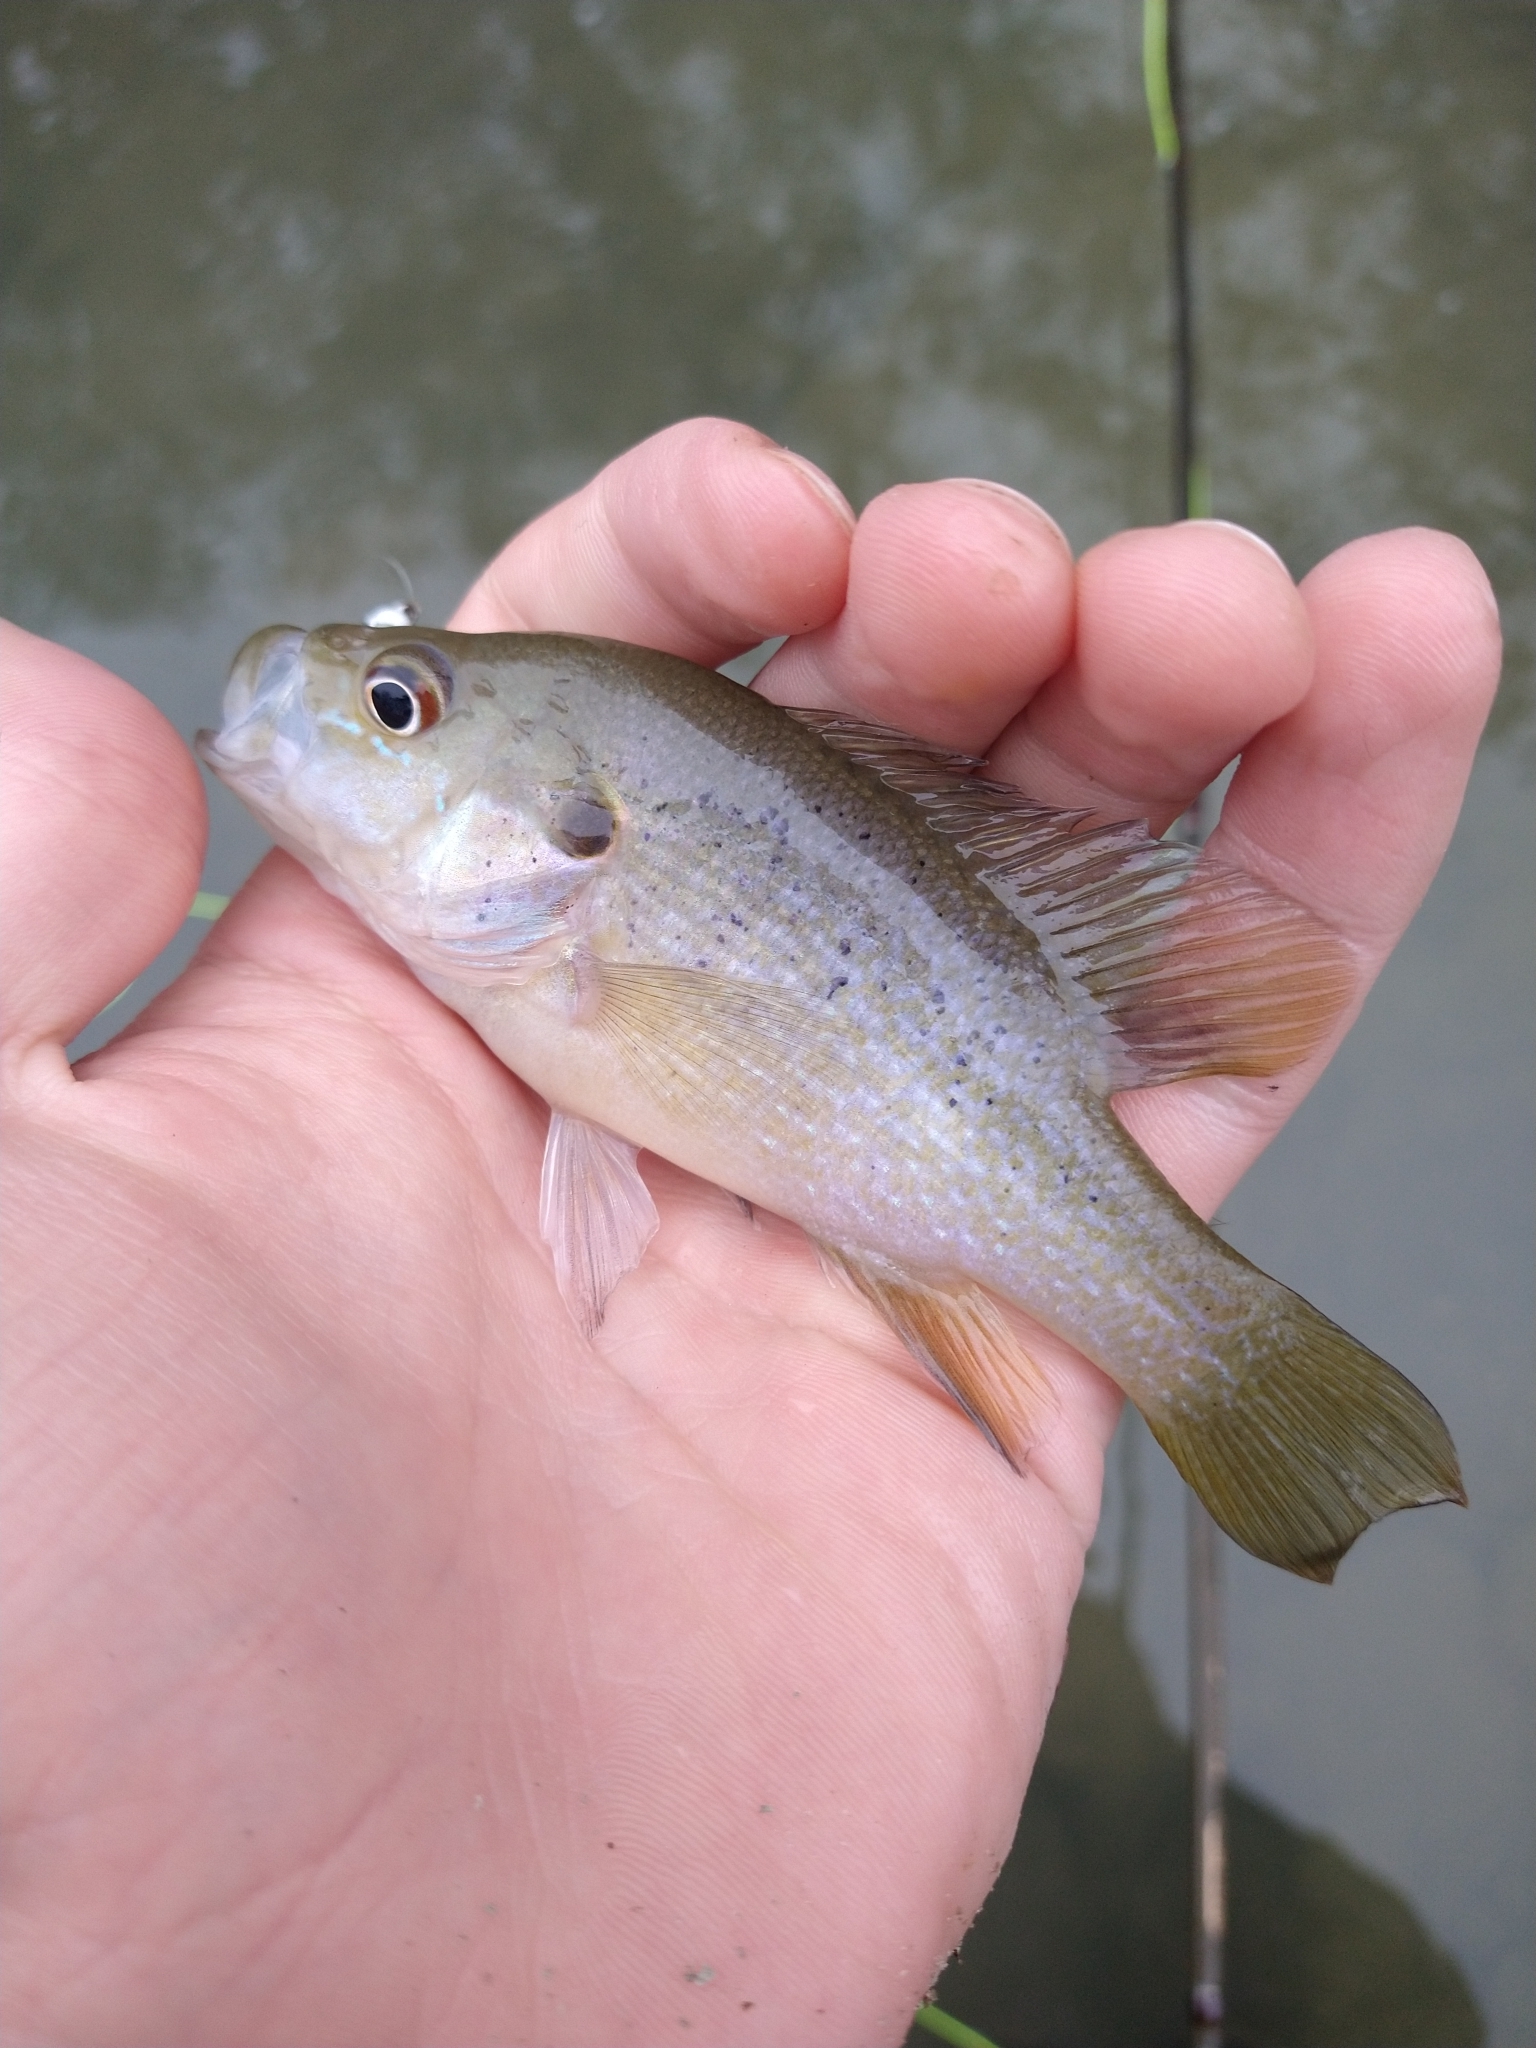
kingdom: Animalia
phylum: Chordata
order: Perciformes
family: Centrarchidae
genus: Lepomis
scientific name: Lepomis cyanellus
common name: Green sunfish
